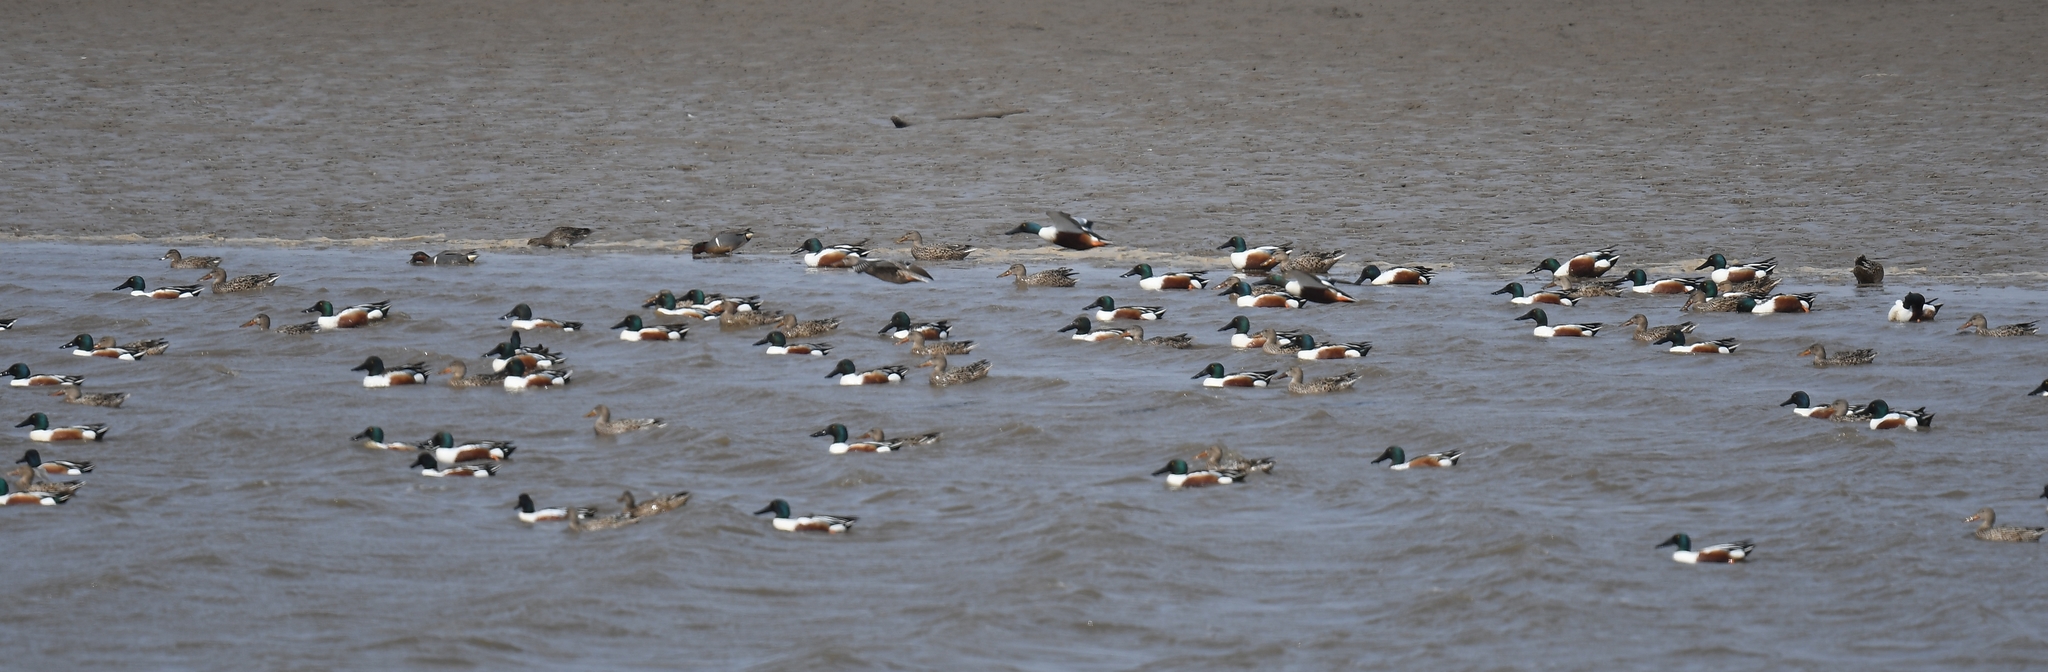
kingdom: Animalia
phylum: Chordata
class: Aves
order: Anseriformes
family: Anatidae
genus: Spatula
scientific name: Spatula clypeata
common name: Northern shoveler
